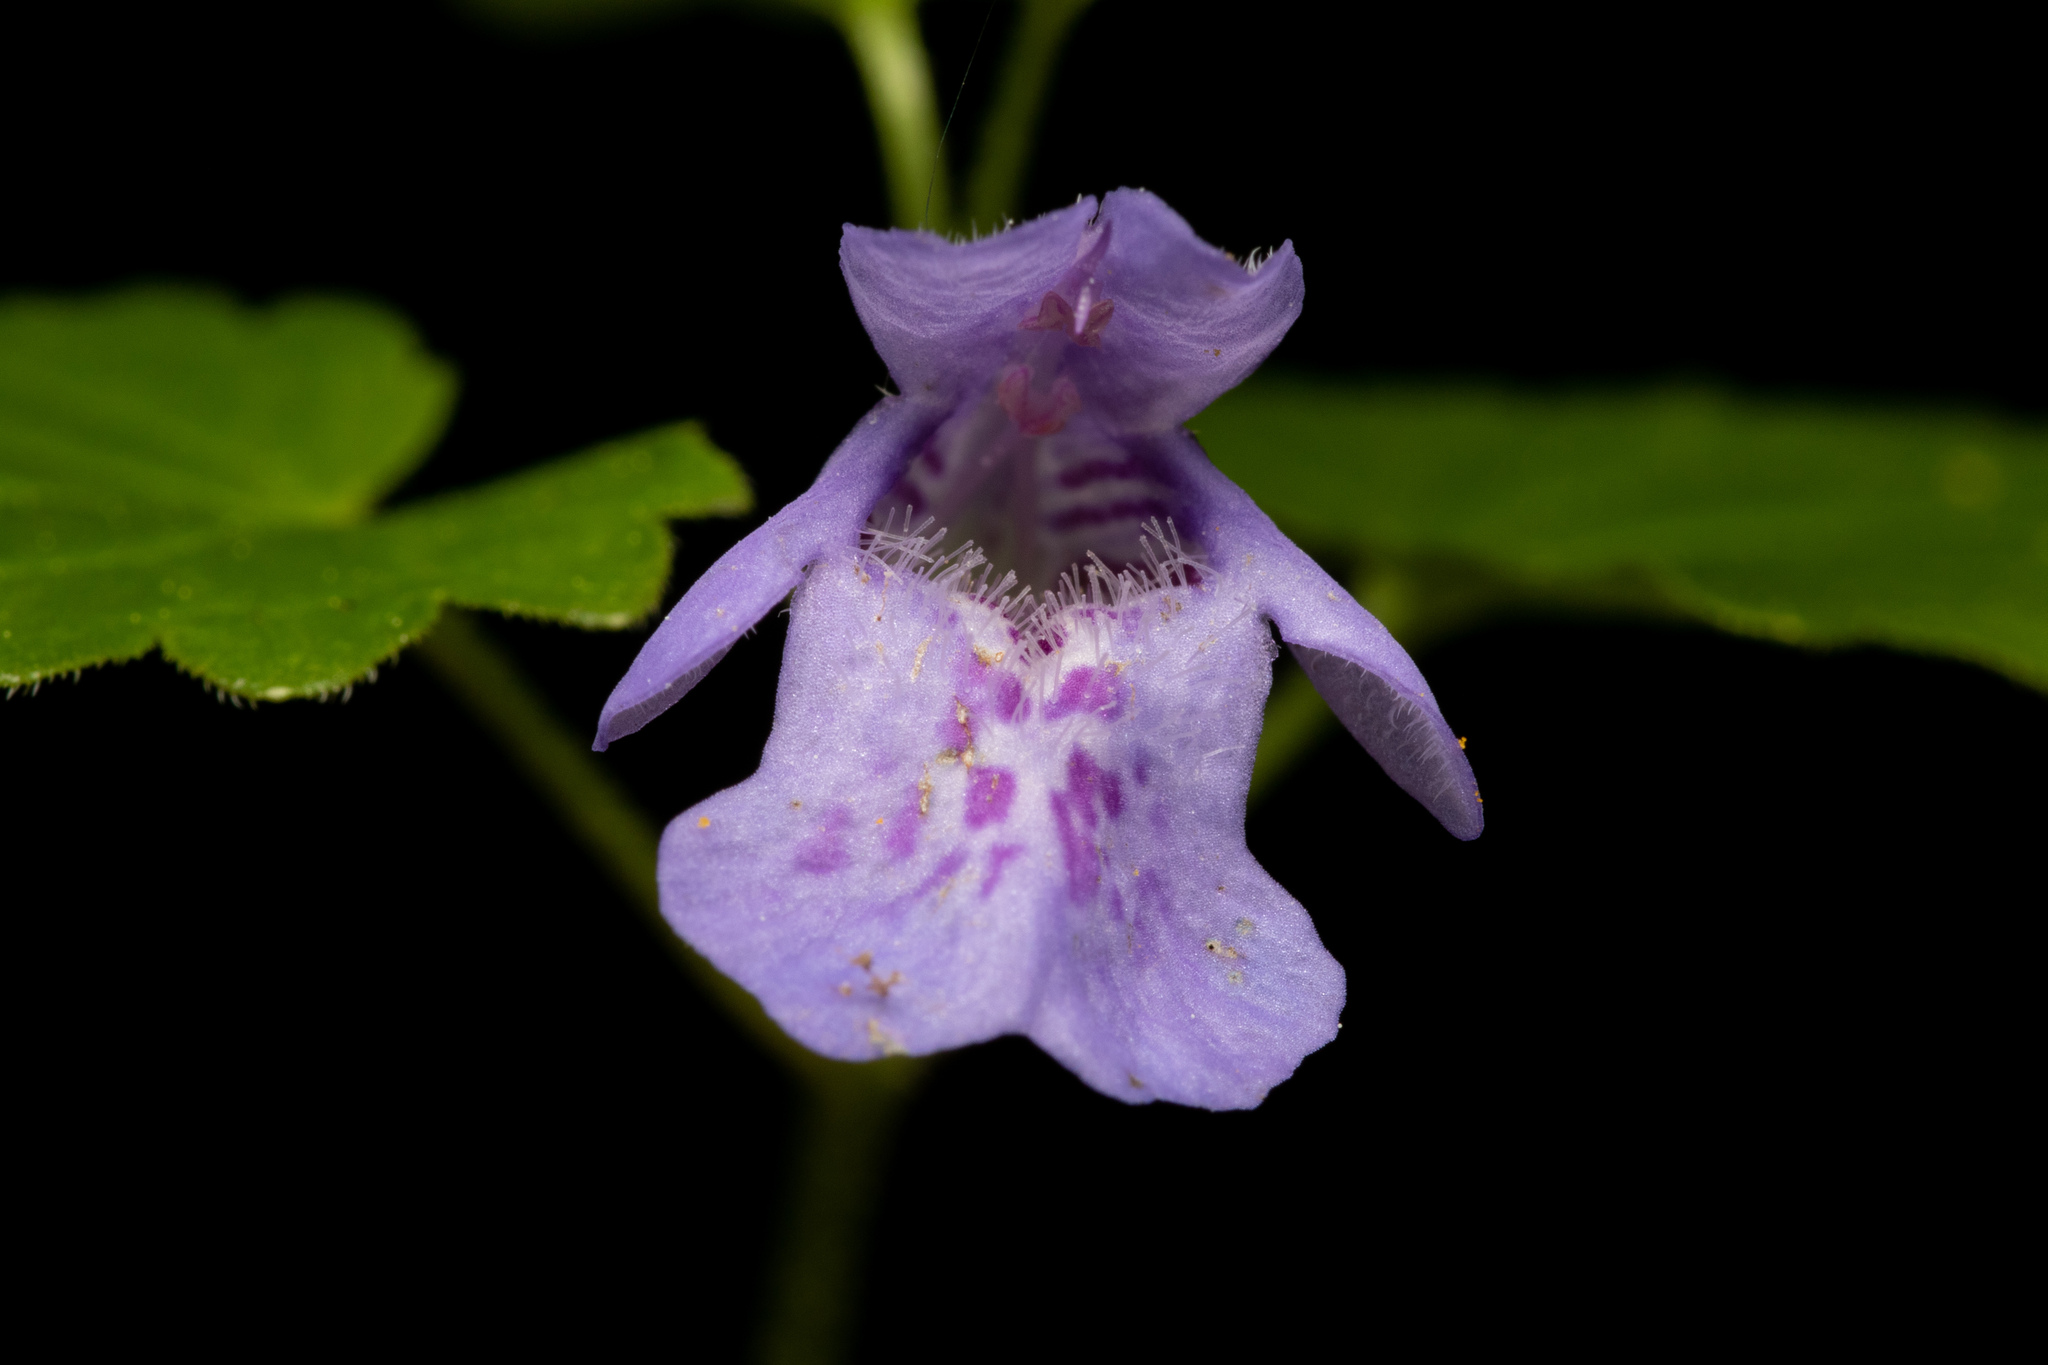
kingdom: Plantae
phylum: Tracheophyta
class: Magnoliopsida
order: Lamiales
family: Lamiaceae
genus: Glechoma
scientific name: Glechoma hederacea
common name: Ground ivy
